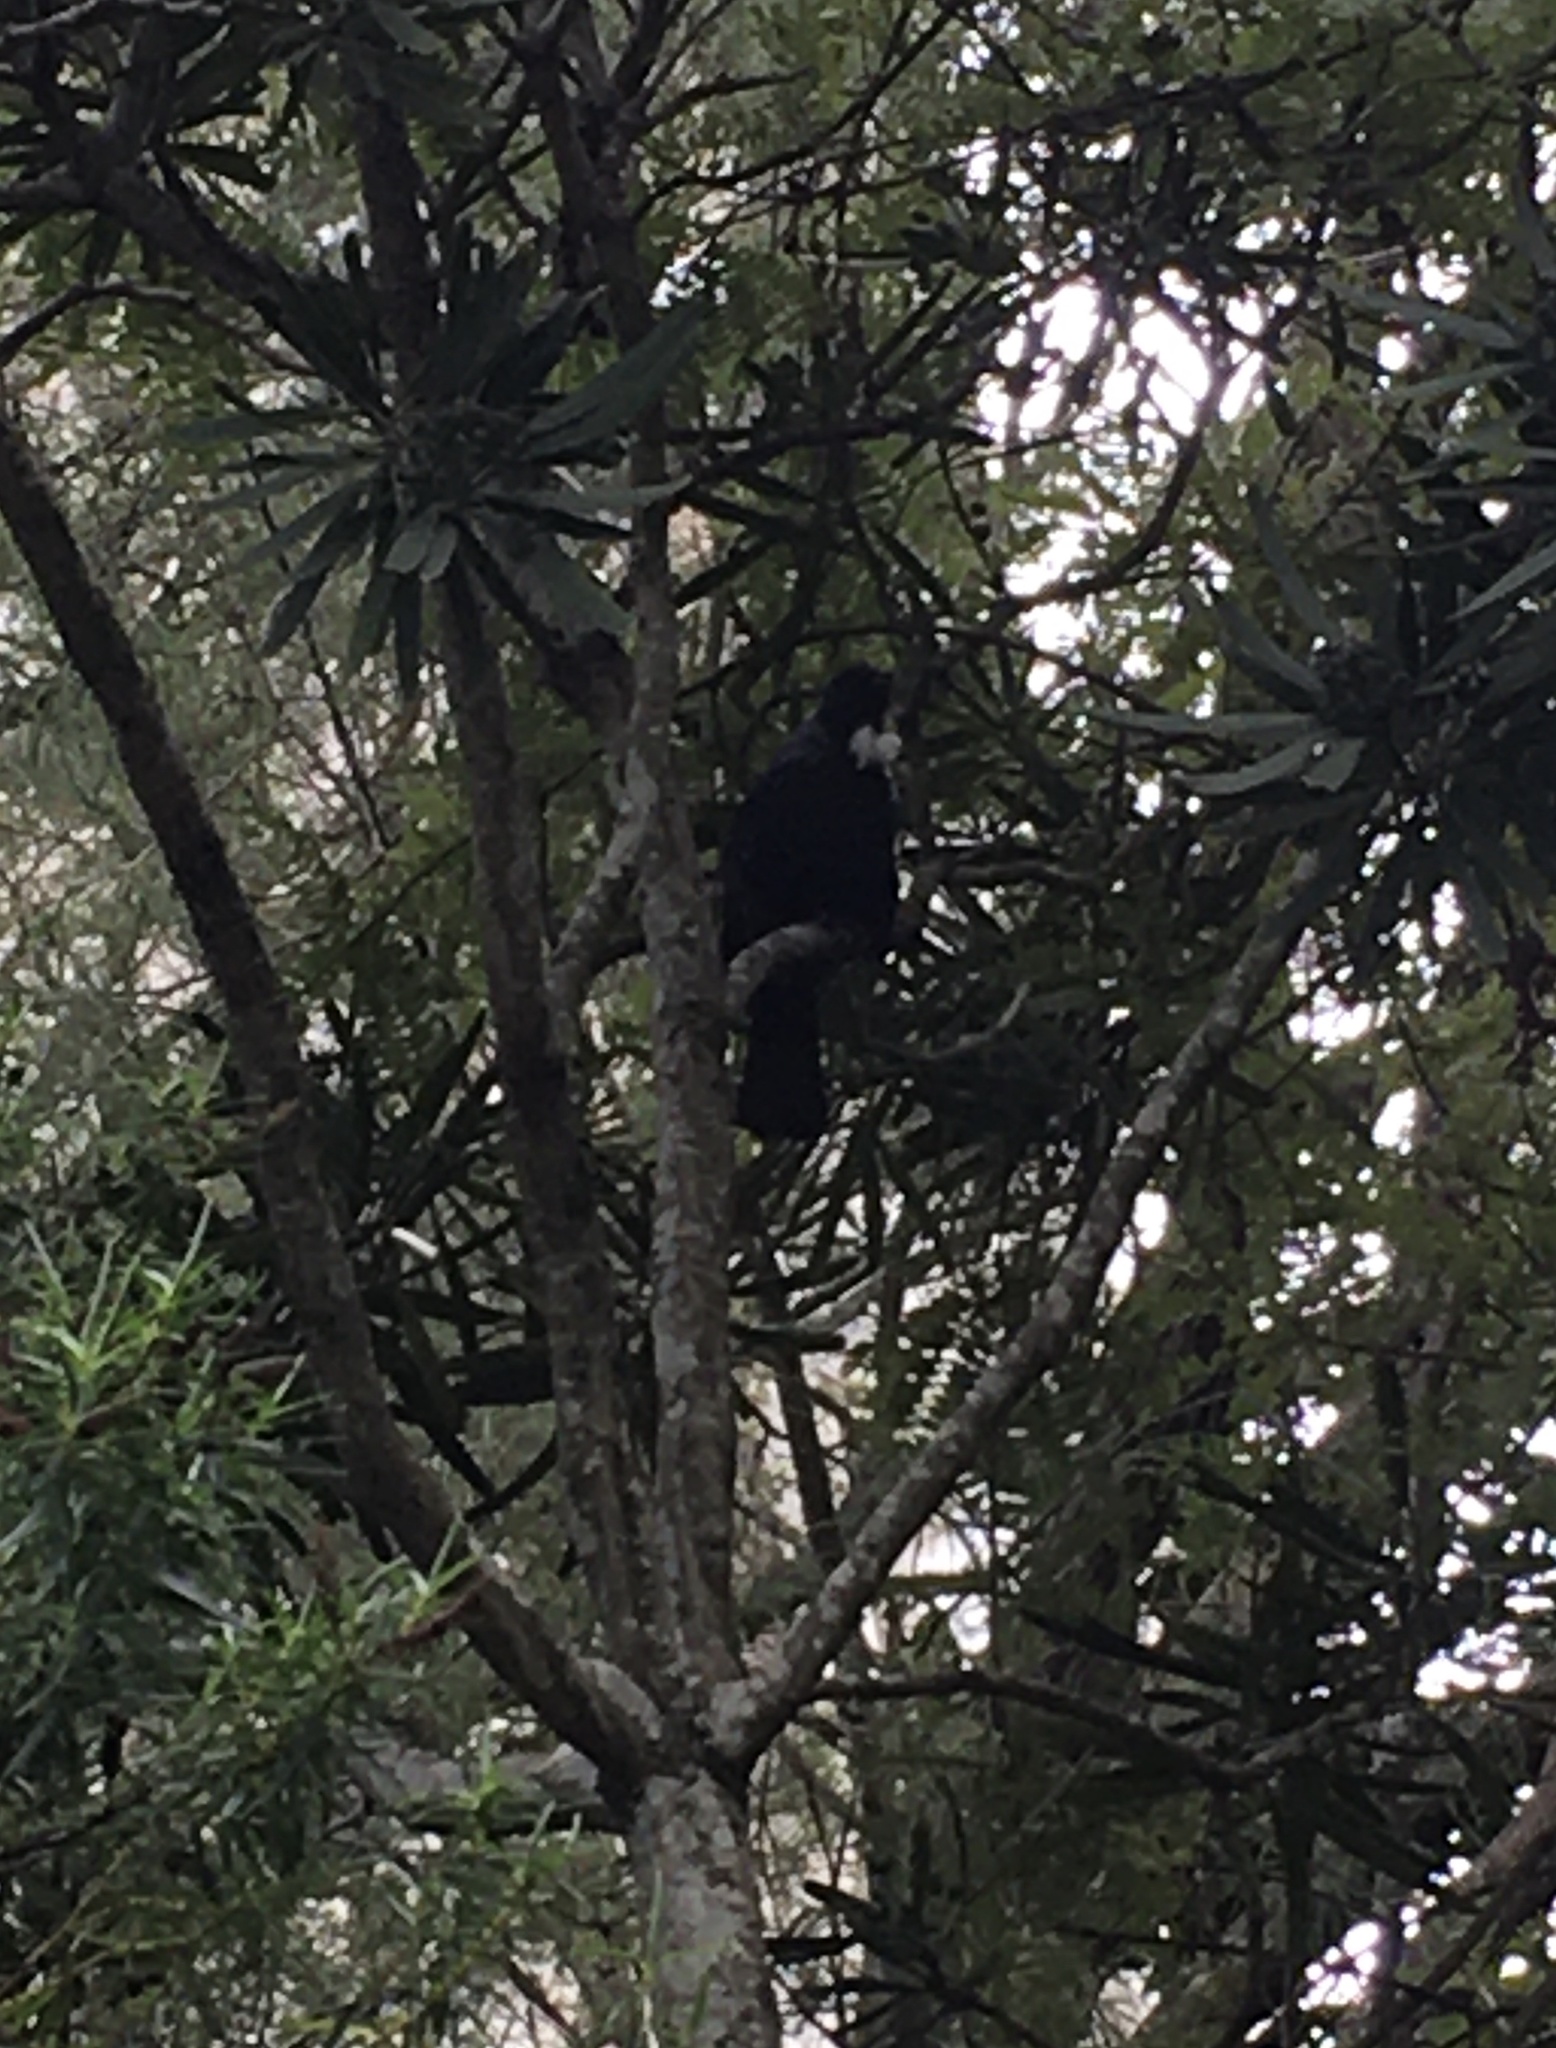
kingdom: Animalia
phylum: Chordata
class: Aves
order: Passeriformes
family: Meliphagidae
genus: Prosthemadera
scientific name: Prosthemadera novaeseelandiae
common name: Tui
